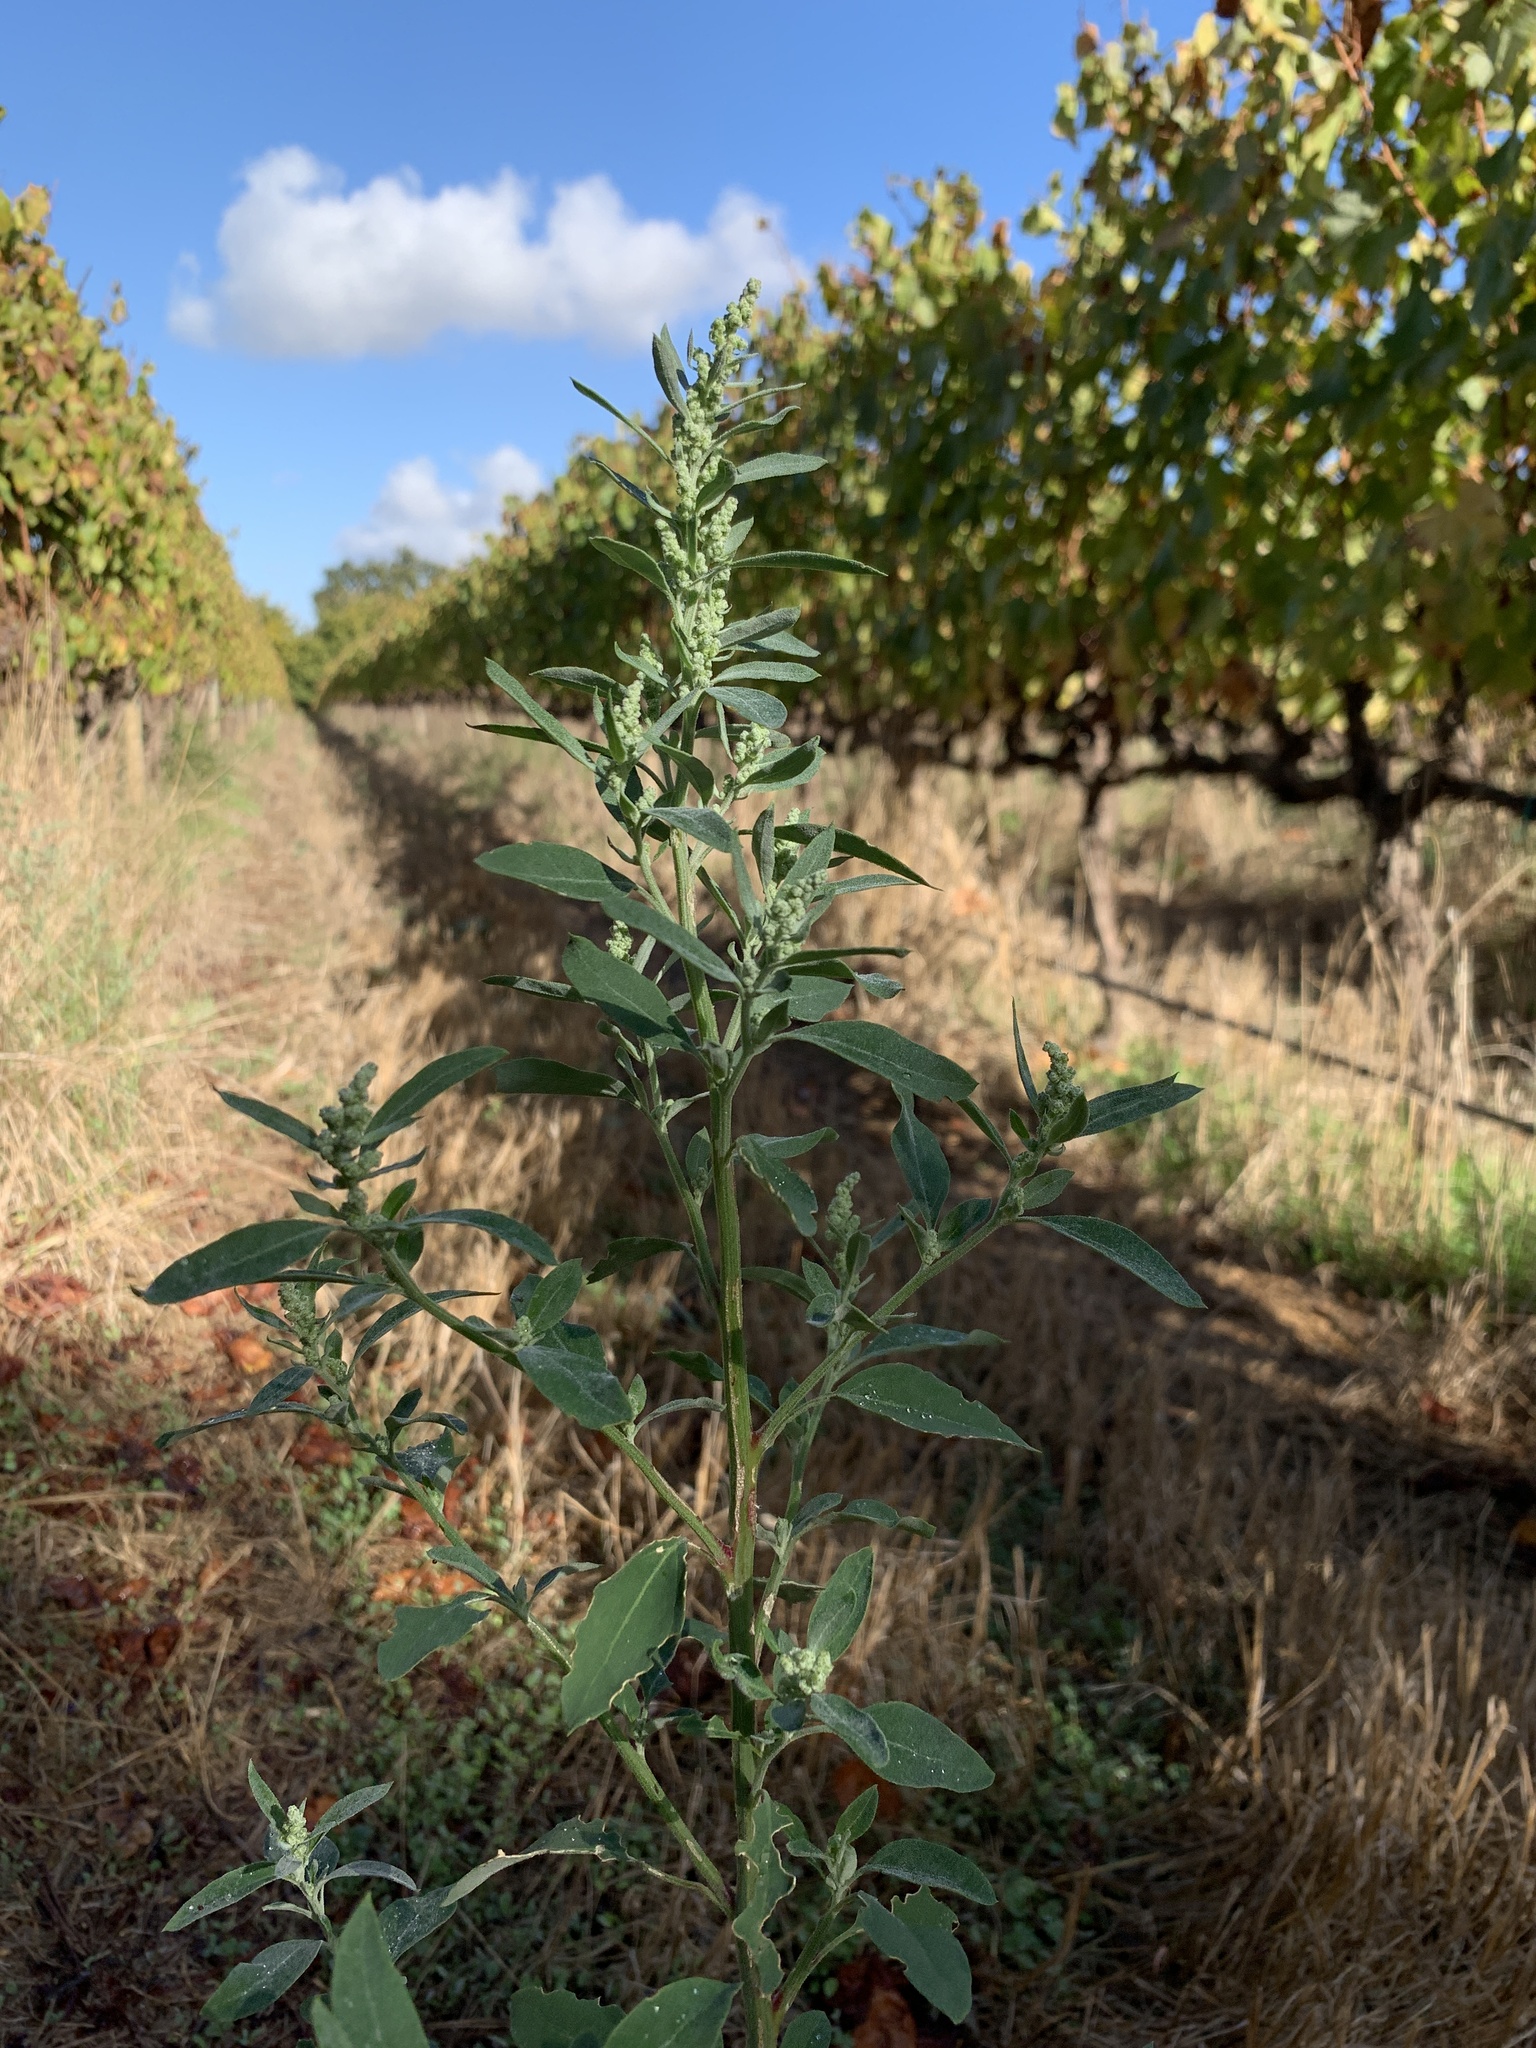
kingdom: Plantae
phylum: Tracheophyta
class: Magnoliopsida
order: Caryophyllales
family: Amaranthaceae
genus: Chenopodium
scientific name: Chenopodium album
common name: Fat-hen
